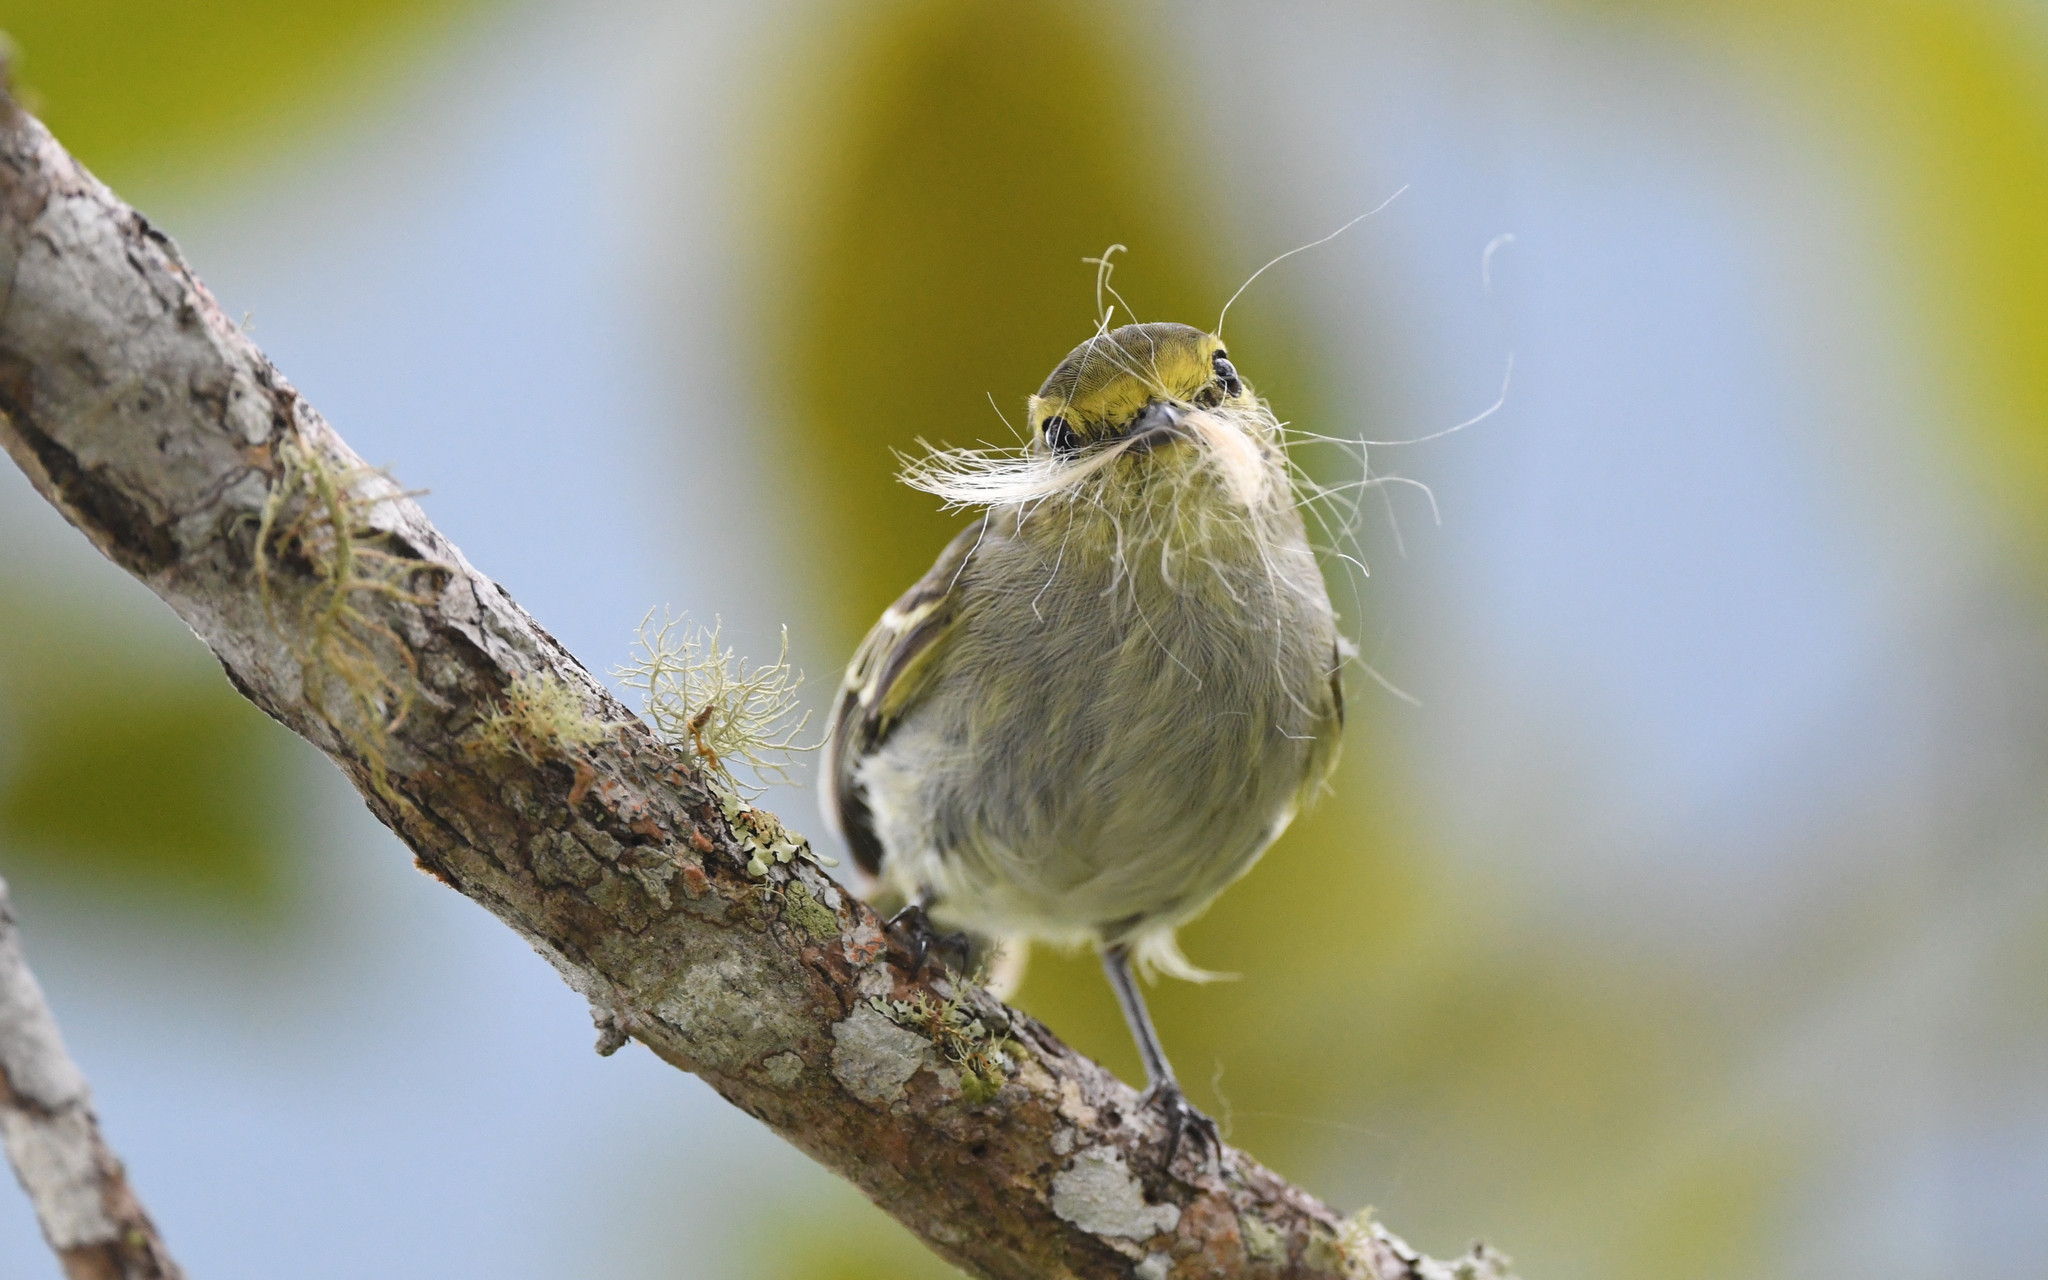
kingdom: Animalia
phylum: Chordata
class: Aves
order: Passeriformes
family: Tyrannidae
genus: Zimmerius
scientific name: Zimmerius chrysops
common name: Golden-faced tyrannulet
